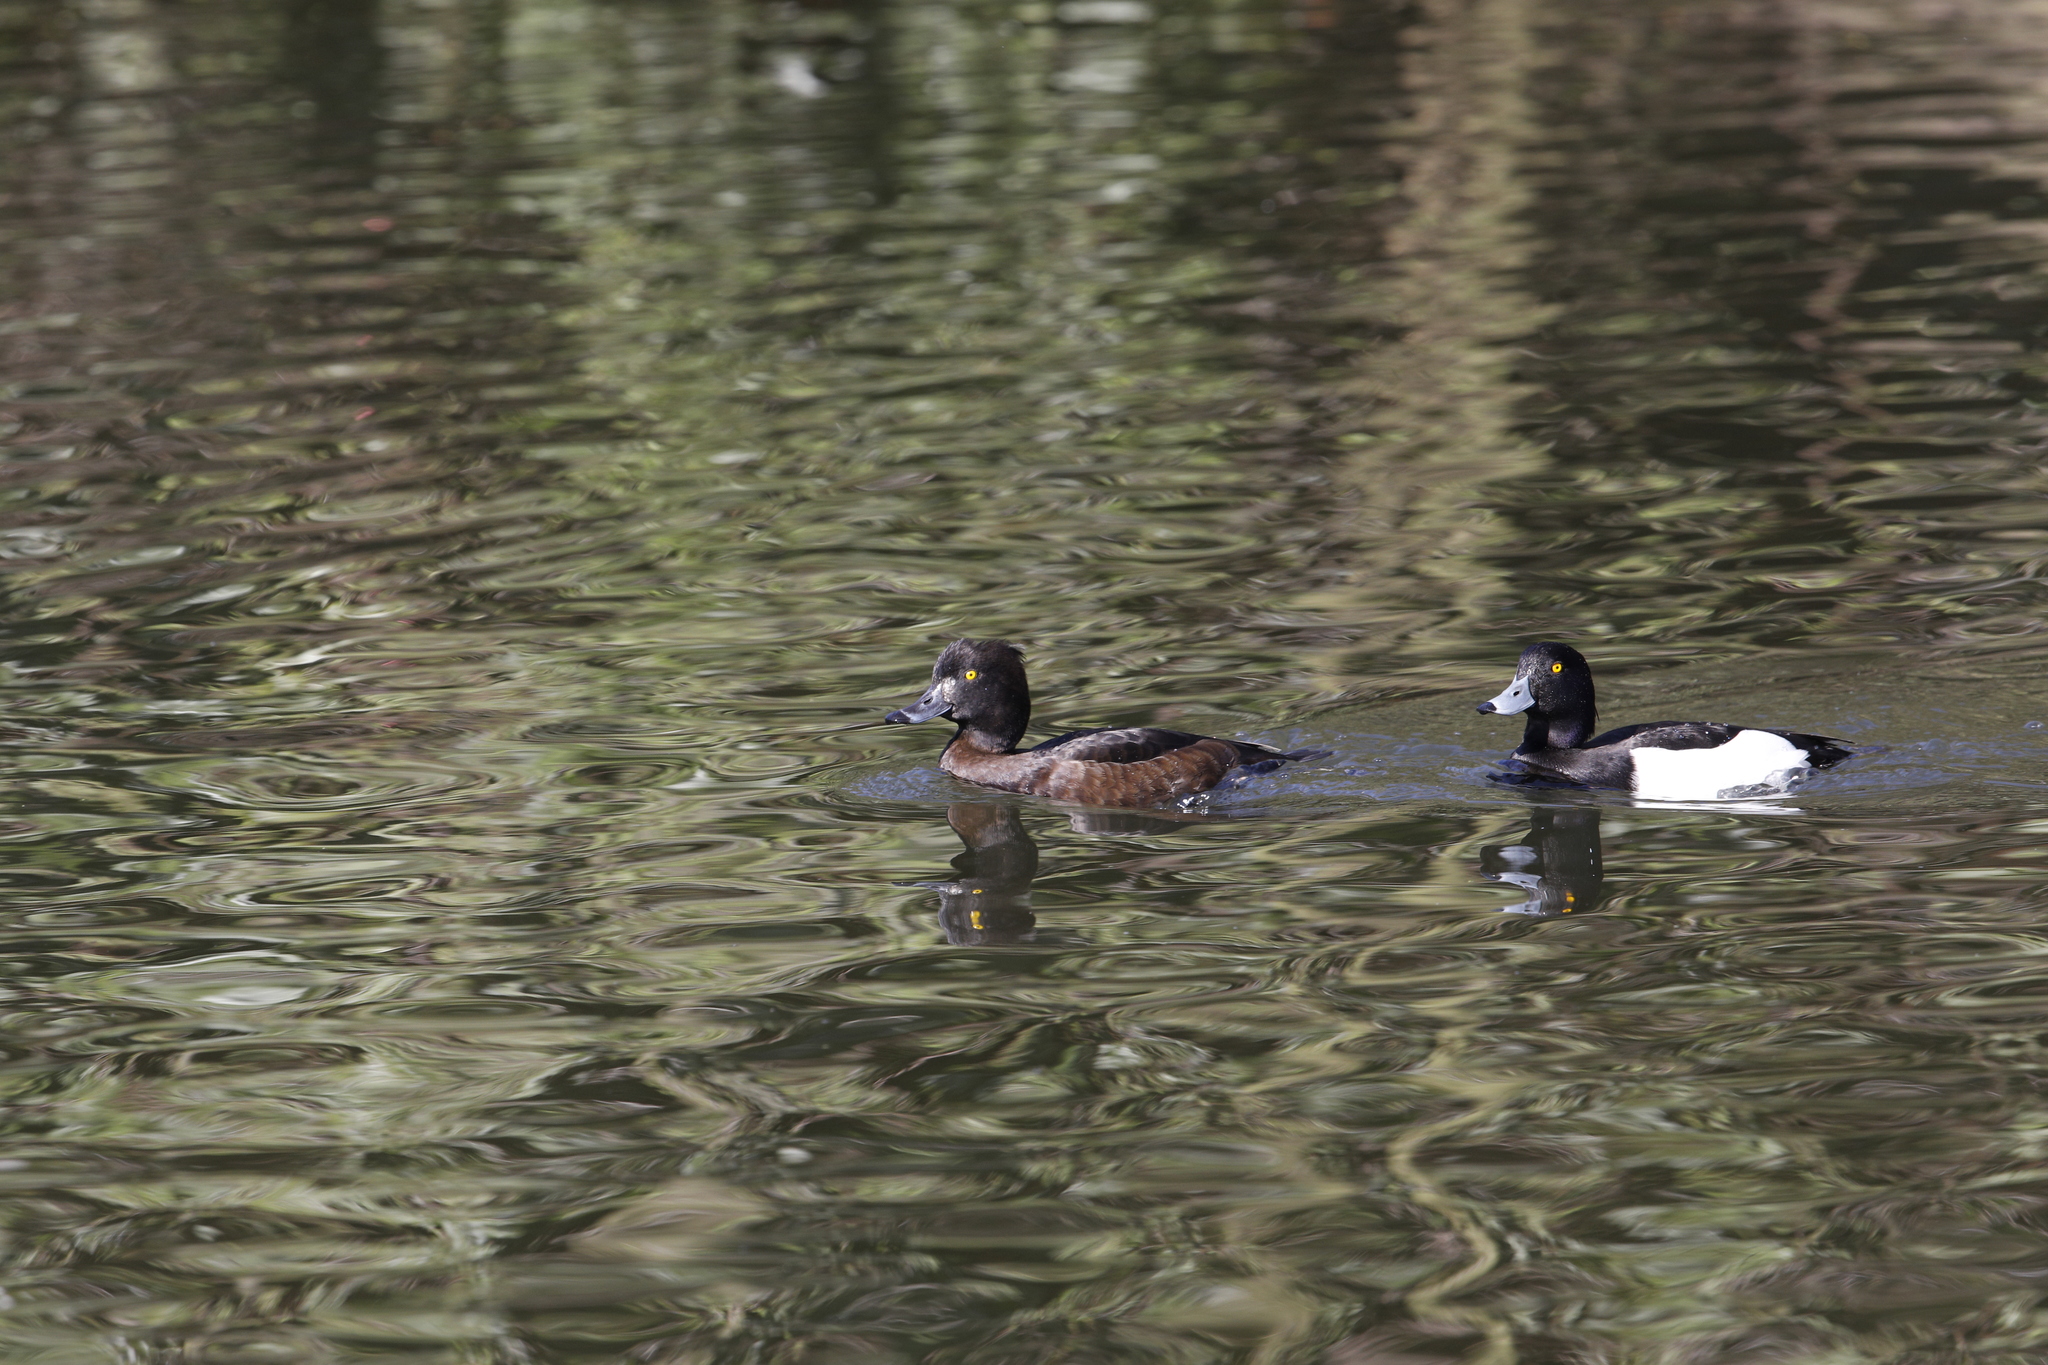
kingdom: Animalia
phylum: Chordata
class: Aves
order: Anseriformes
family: Anatidae
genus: Aythya
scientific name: Aythya fuligula
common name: Tufted duck
